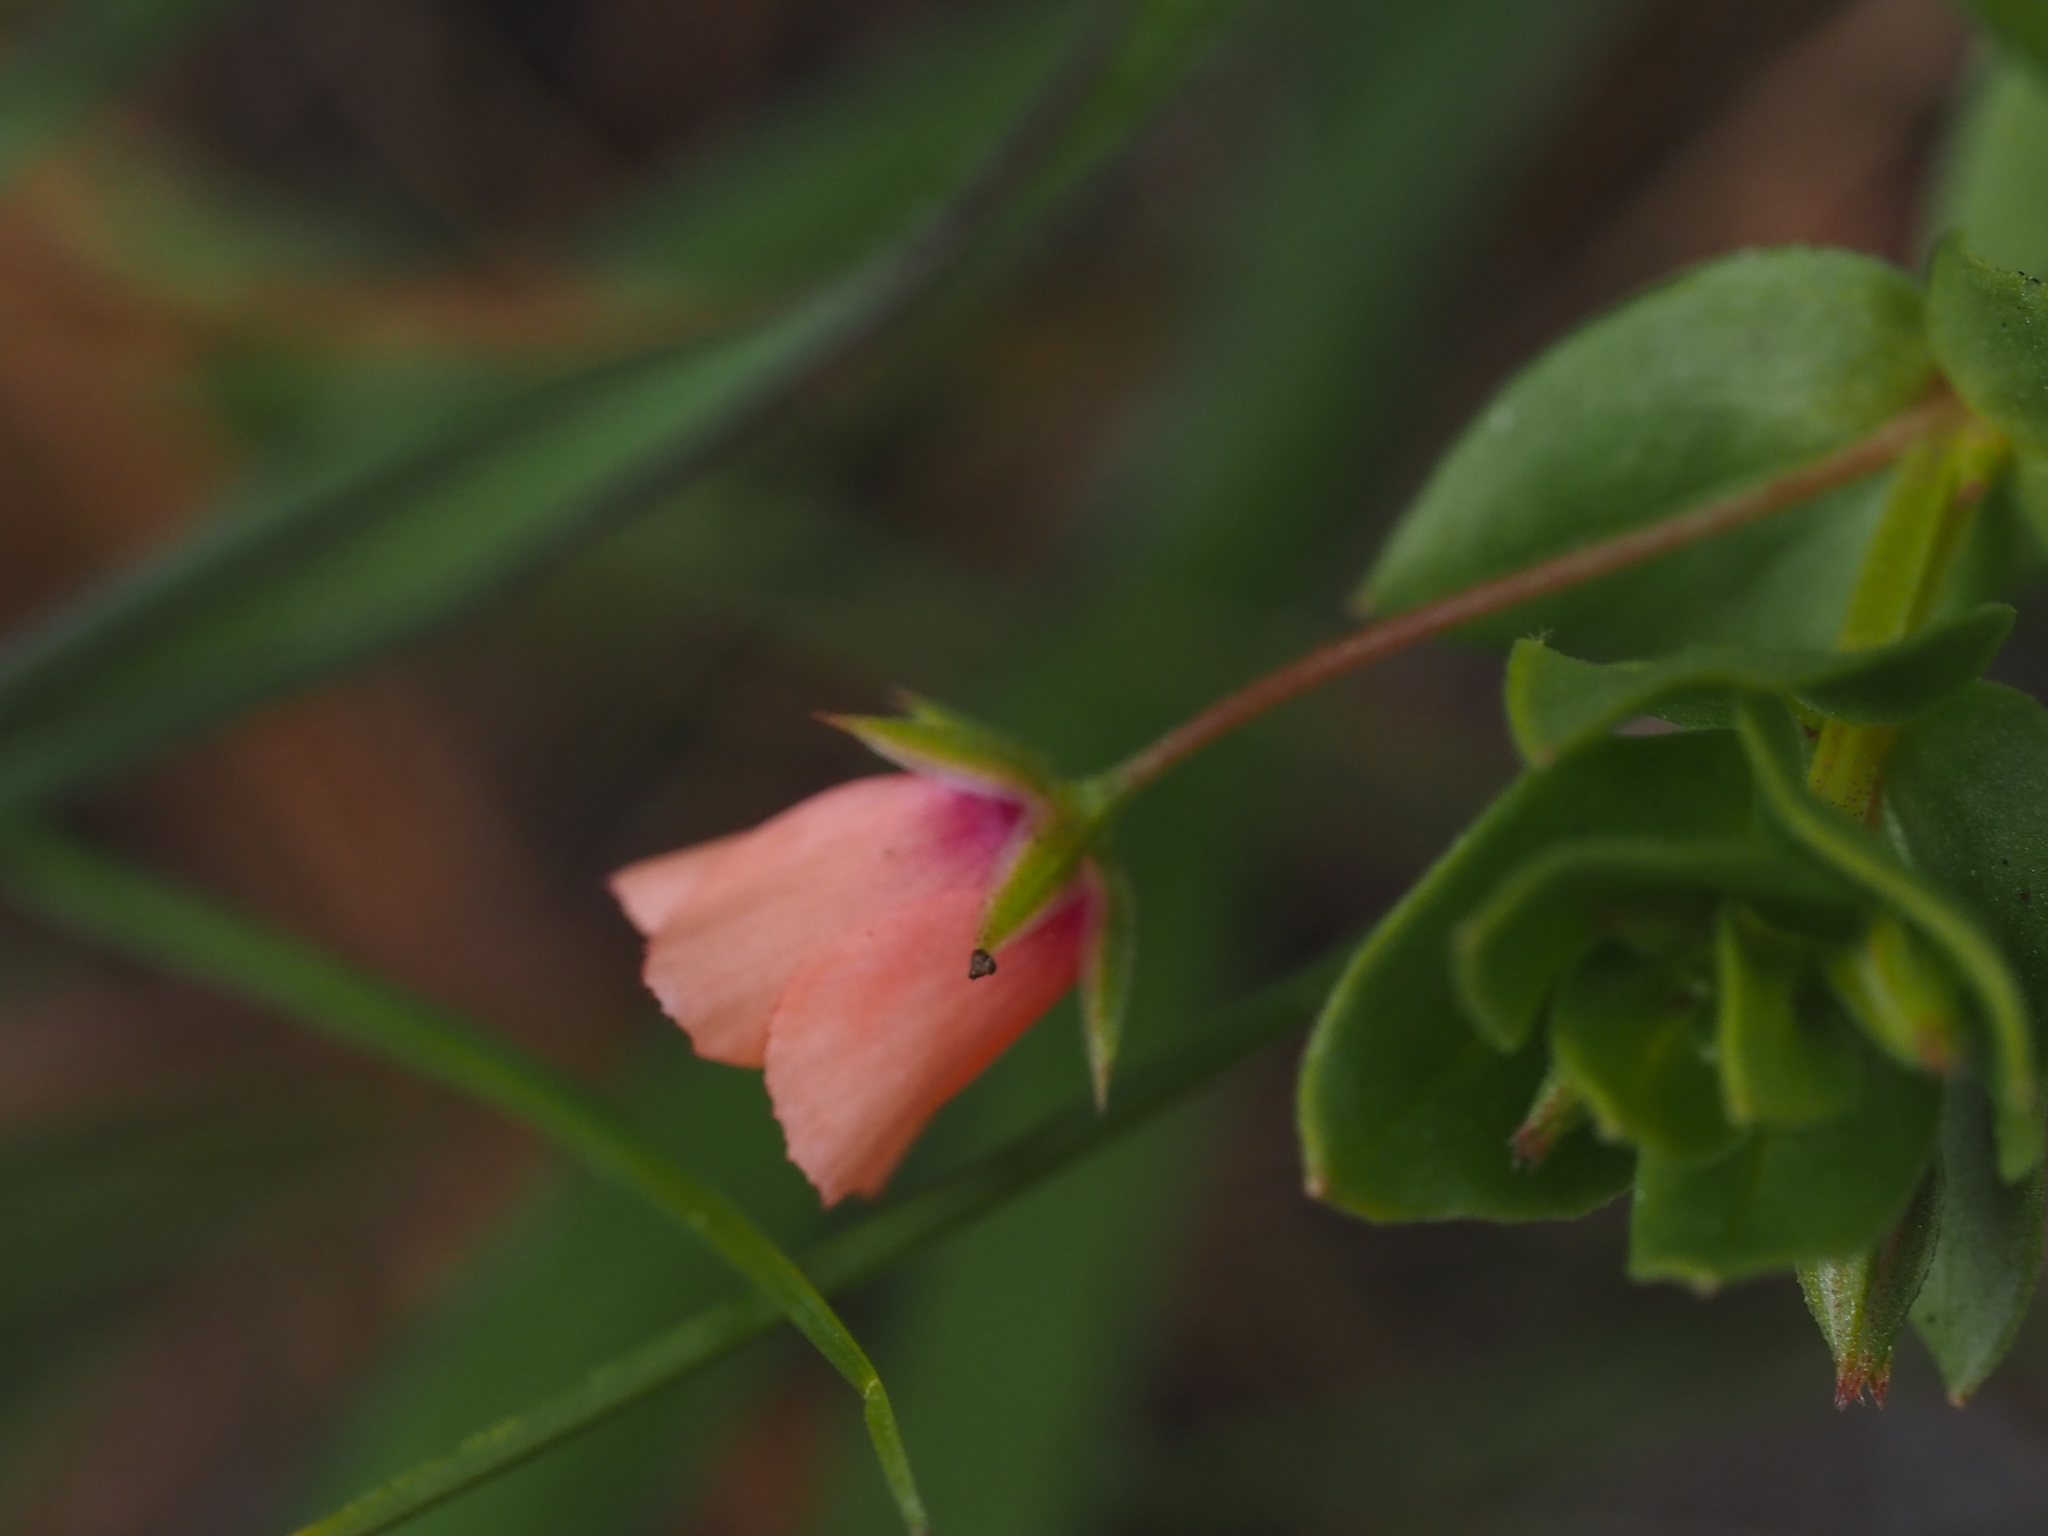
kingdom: Plantae
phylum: Tracheophyta
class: Magnoliopsida
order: Ericales
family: Primulaceae
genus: Lysimachia
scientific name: Lysimachia arvensis
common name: Scarlet pimpernel
